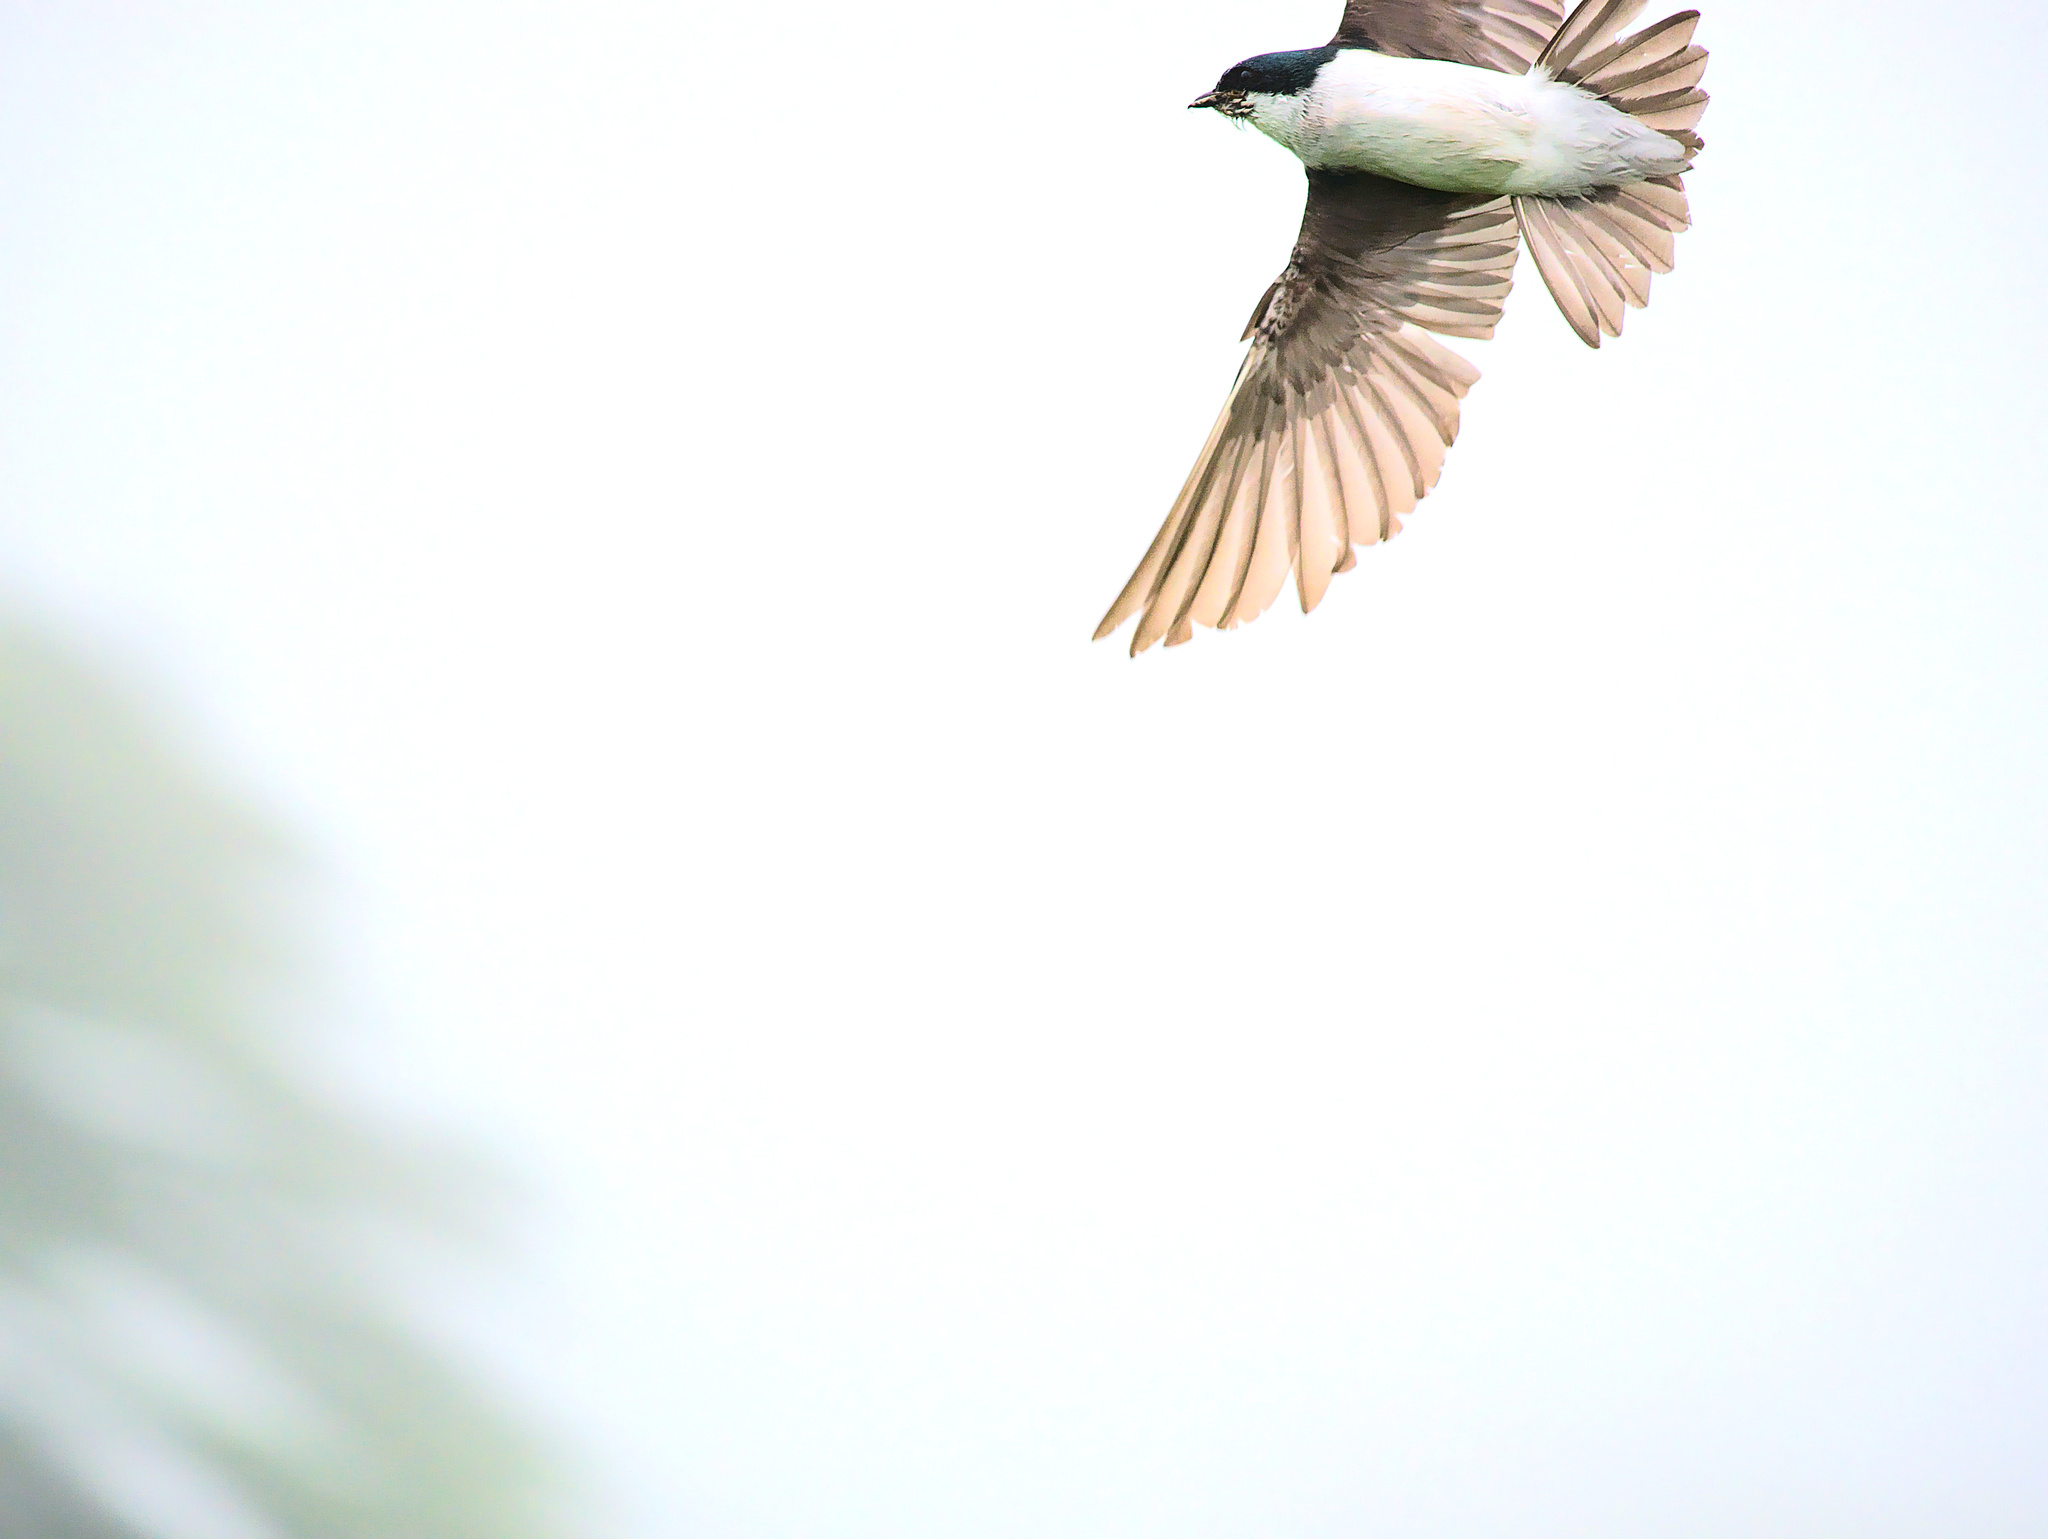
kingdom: Animalia
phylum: Chordata
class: Aves
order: Passeriformes
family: Hirundinidae
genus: Tachycineta
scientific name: Tachycineta bicolor
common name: Tree swallow
